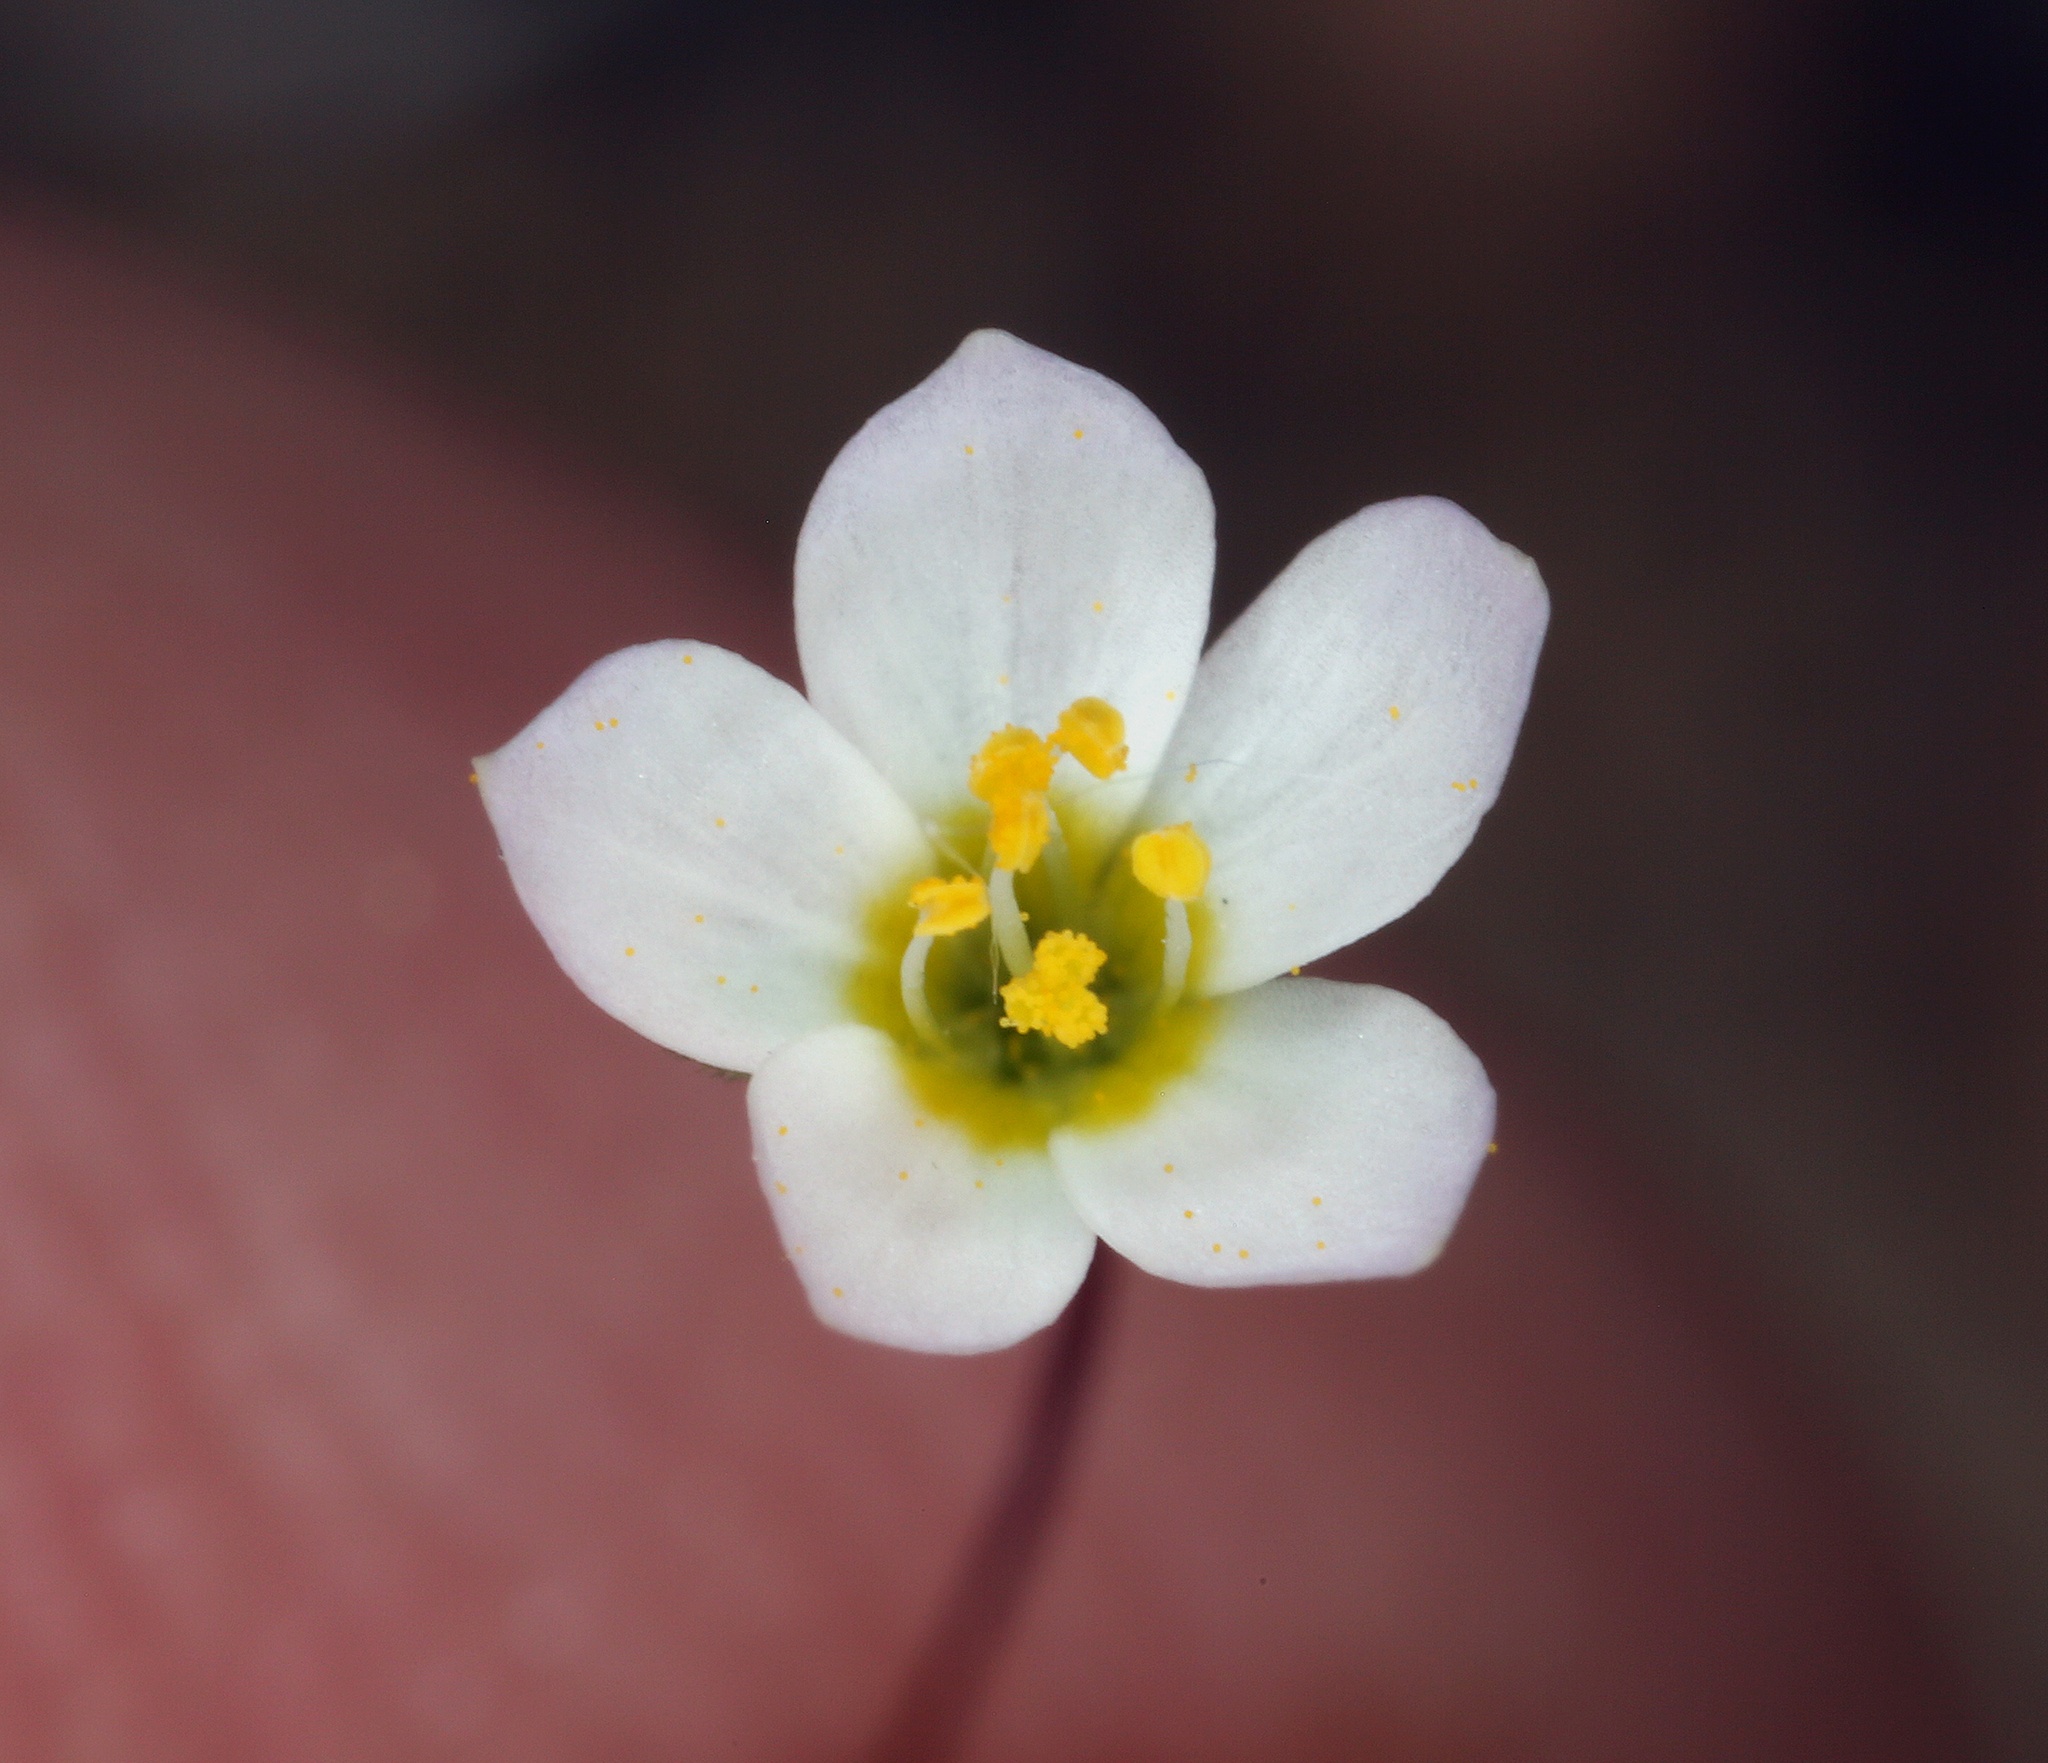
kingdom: Plantae
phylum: Tracheophyta
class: Magnoliopsida
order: Ericales
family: Polemoniaceae
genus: Leptosiphon
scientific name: Leptosiphon septentrionalis
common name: Northern linanthus
